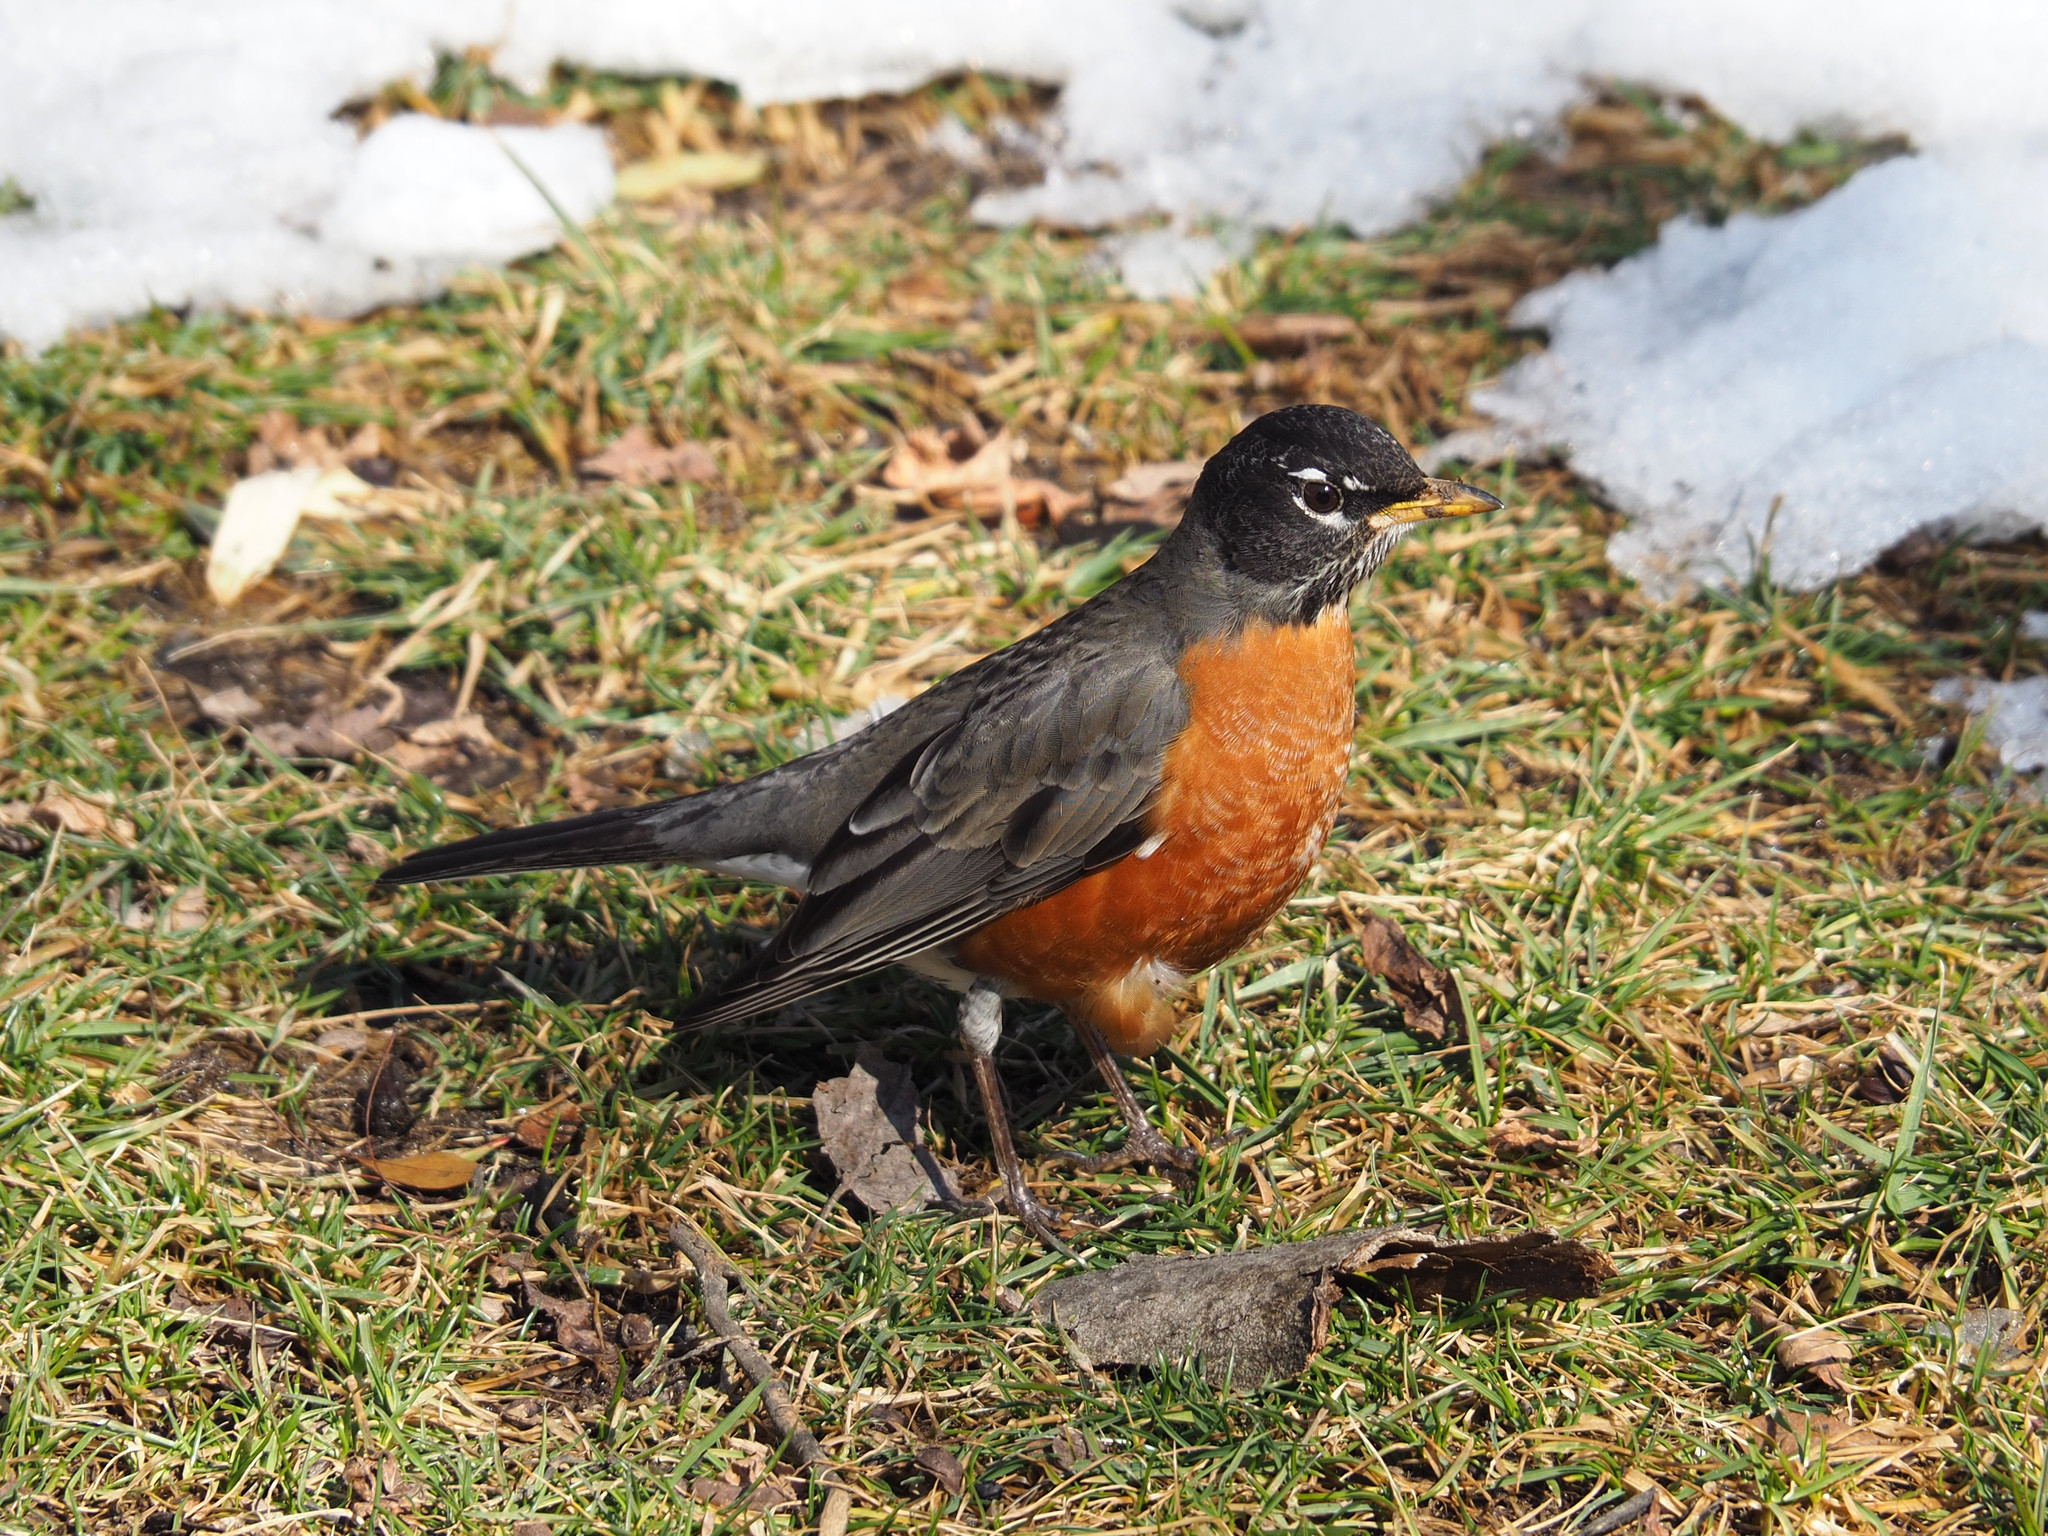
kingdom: Animalia
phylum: Chordata
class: Aves
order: Passeriformes
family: Turdidae
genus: Turdus
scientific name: Turdus migratorius
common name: American robin
